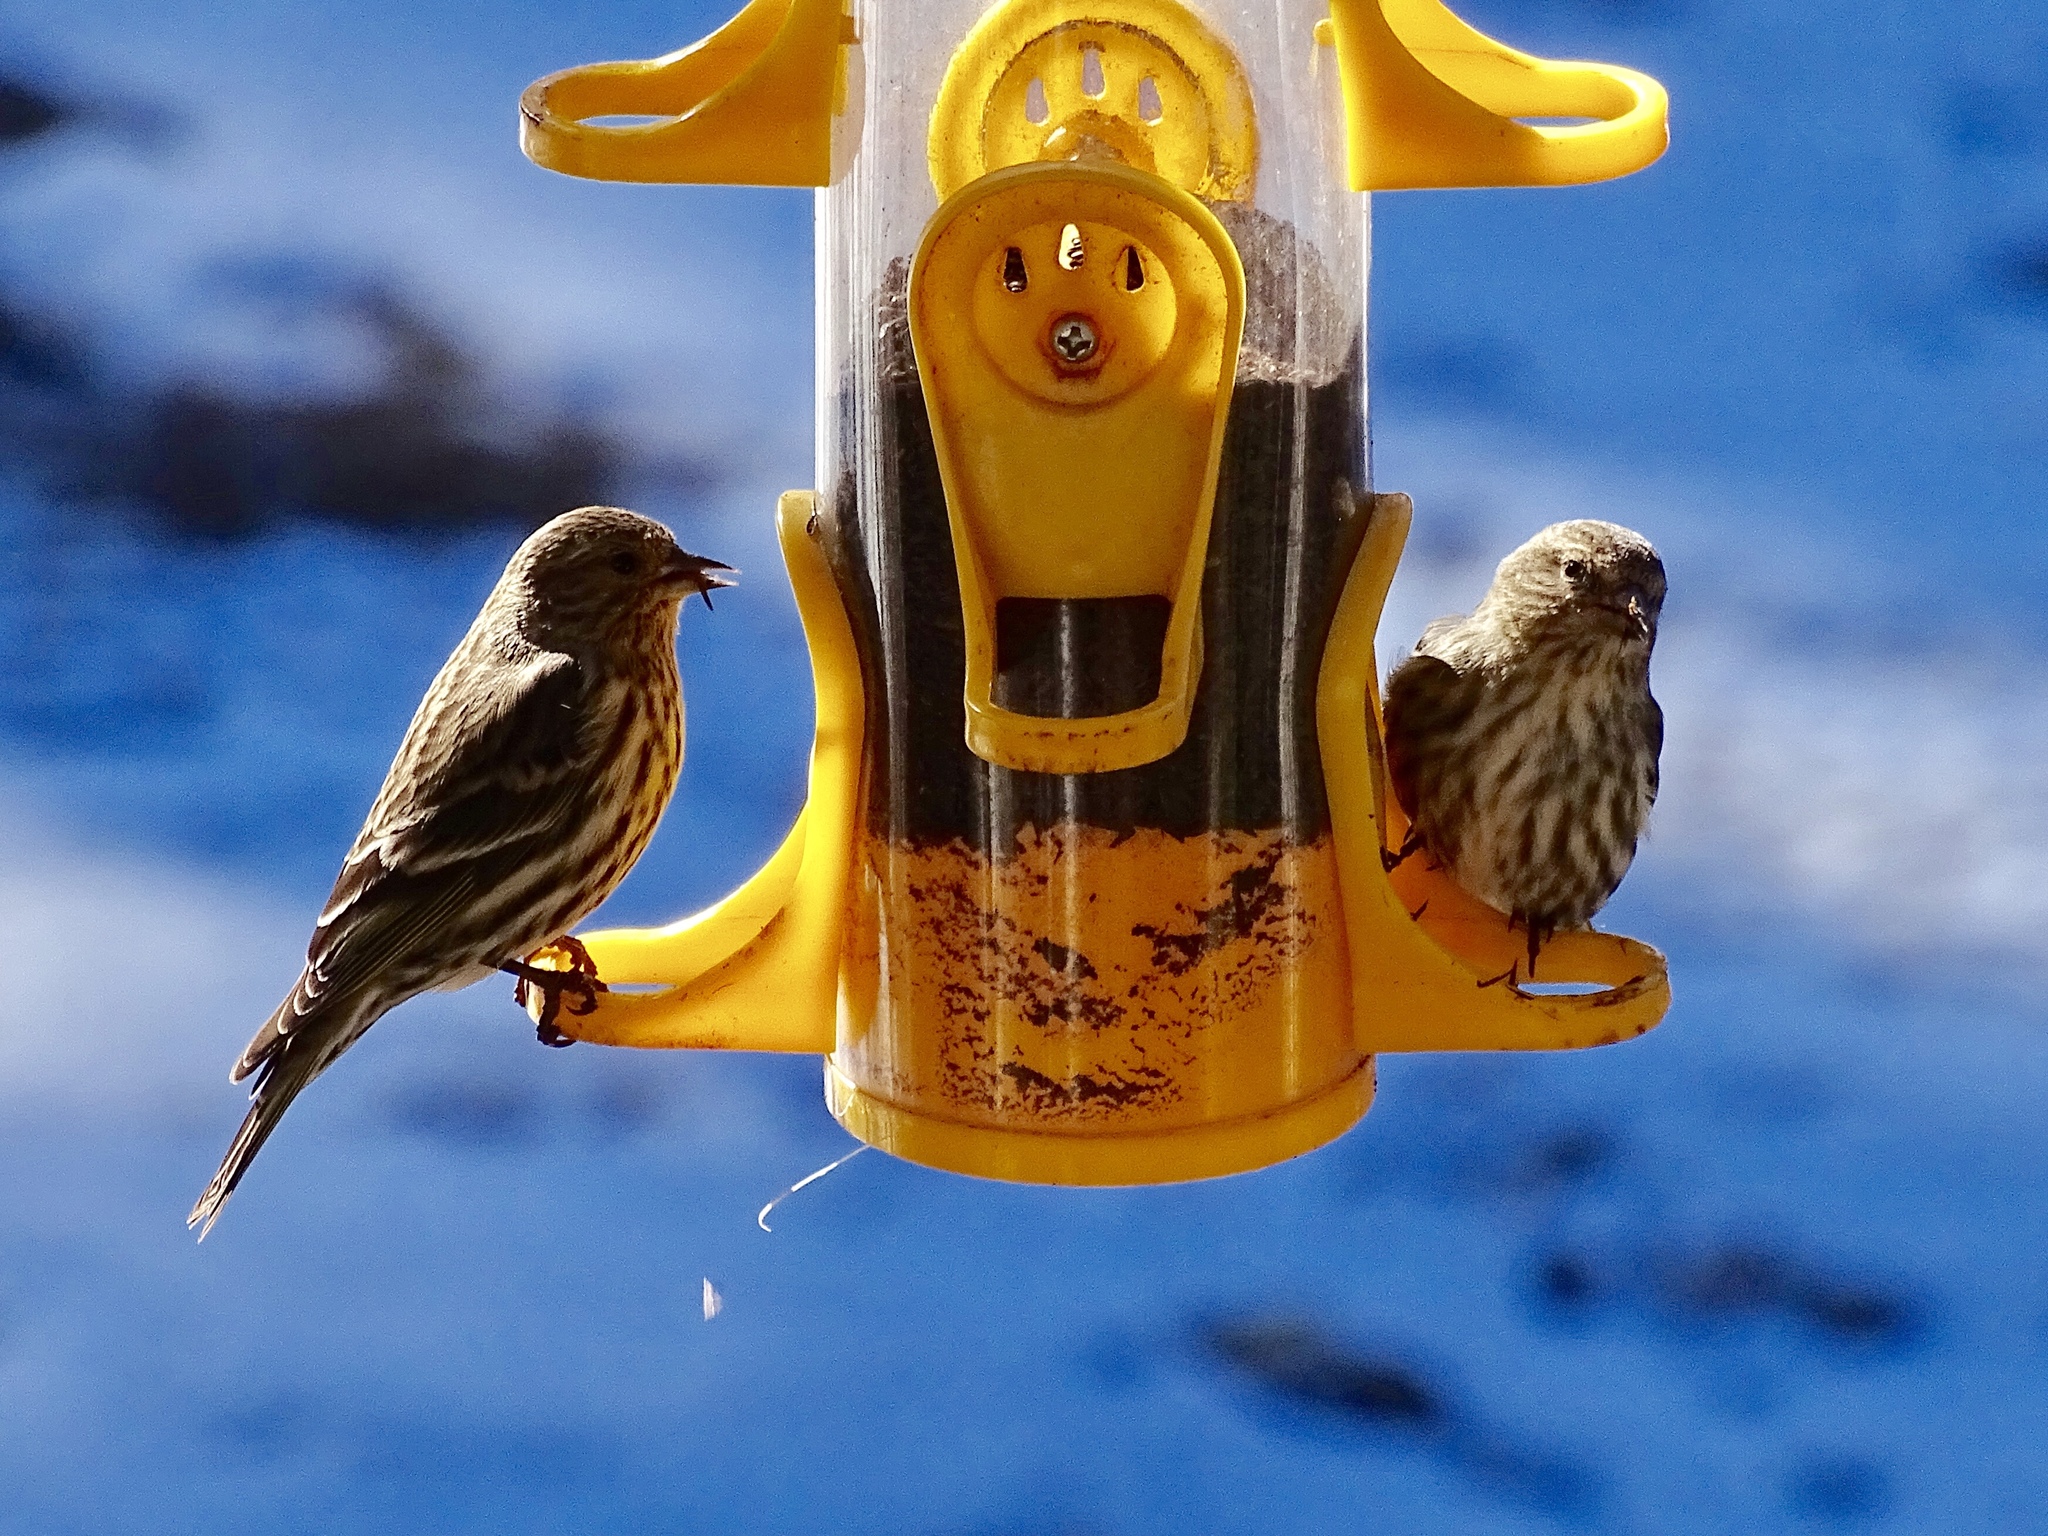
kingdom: Animalia
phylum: Chordata
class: Aves
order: Passeriformes
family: Fringillidae
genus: Spinus
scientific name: Spinus pinus
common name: Pine siskin
